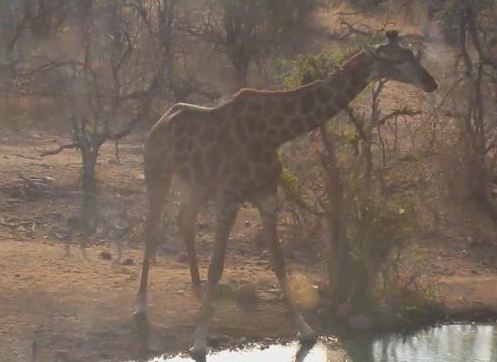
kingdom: Animalia
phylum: Chordata
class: Mammalia
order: Artiodactyla
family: Giraffidae
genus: Giraffa
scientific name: Giraffa giraffa
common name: Southern giraffe
